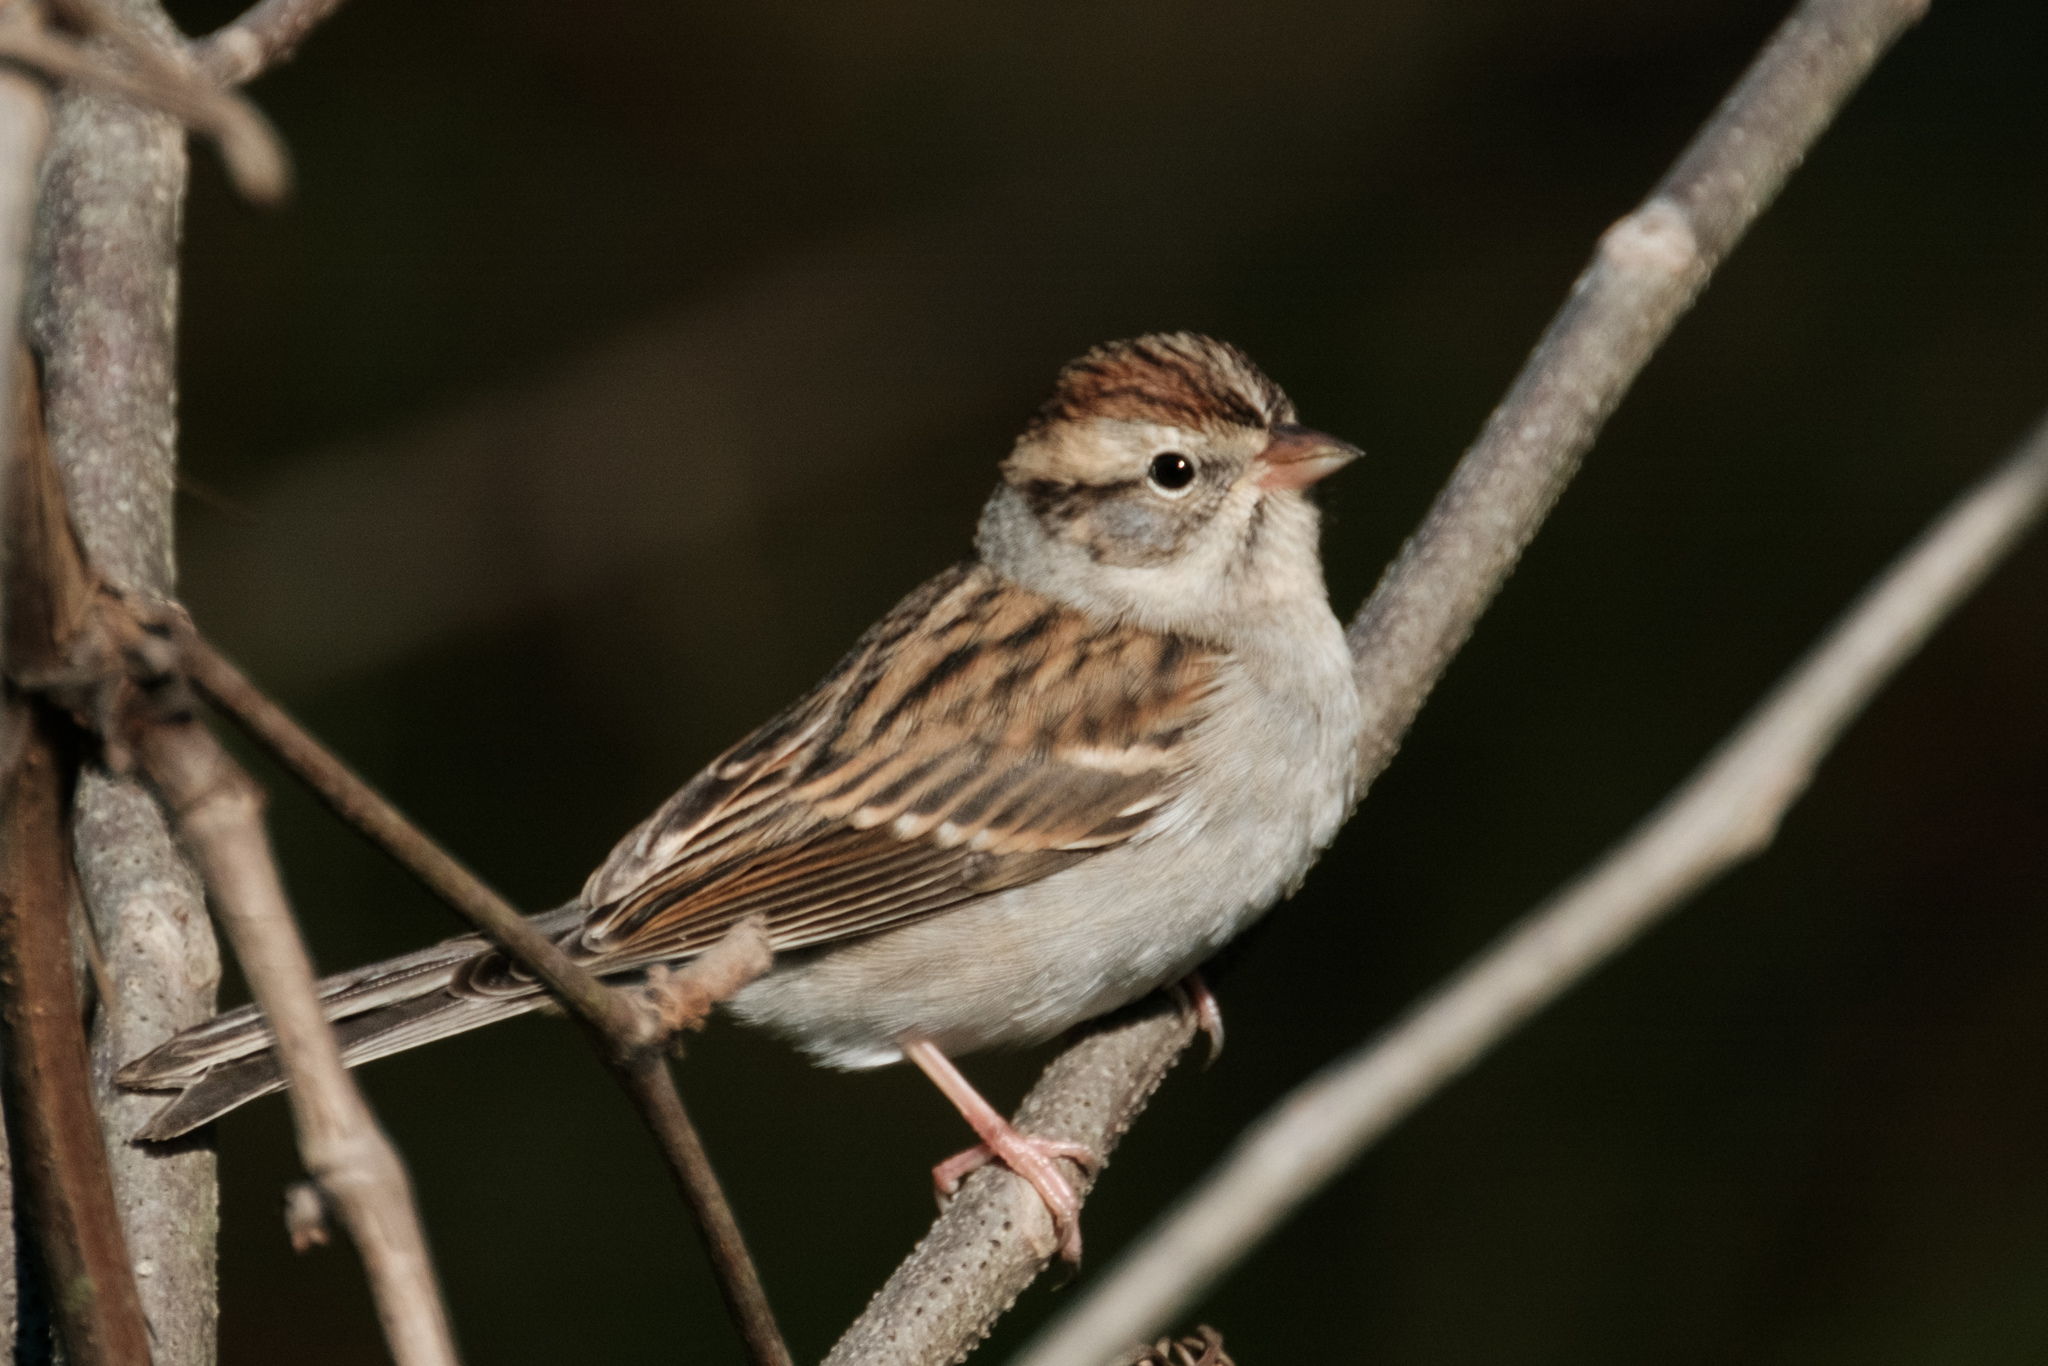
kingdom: Animalia
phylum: Chordata
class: Aves
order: Passeriformes
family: Passerellidae
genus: Spizella
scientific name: Spizella passerina
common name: Chipping sparrow
